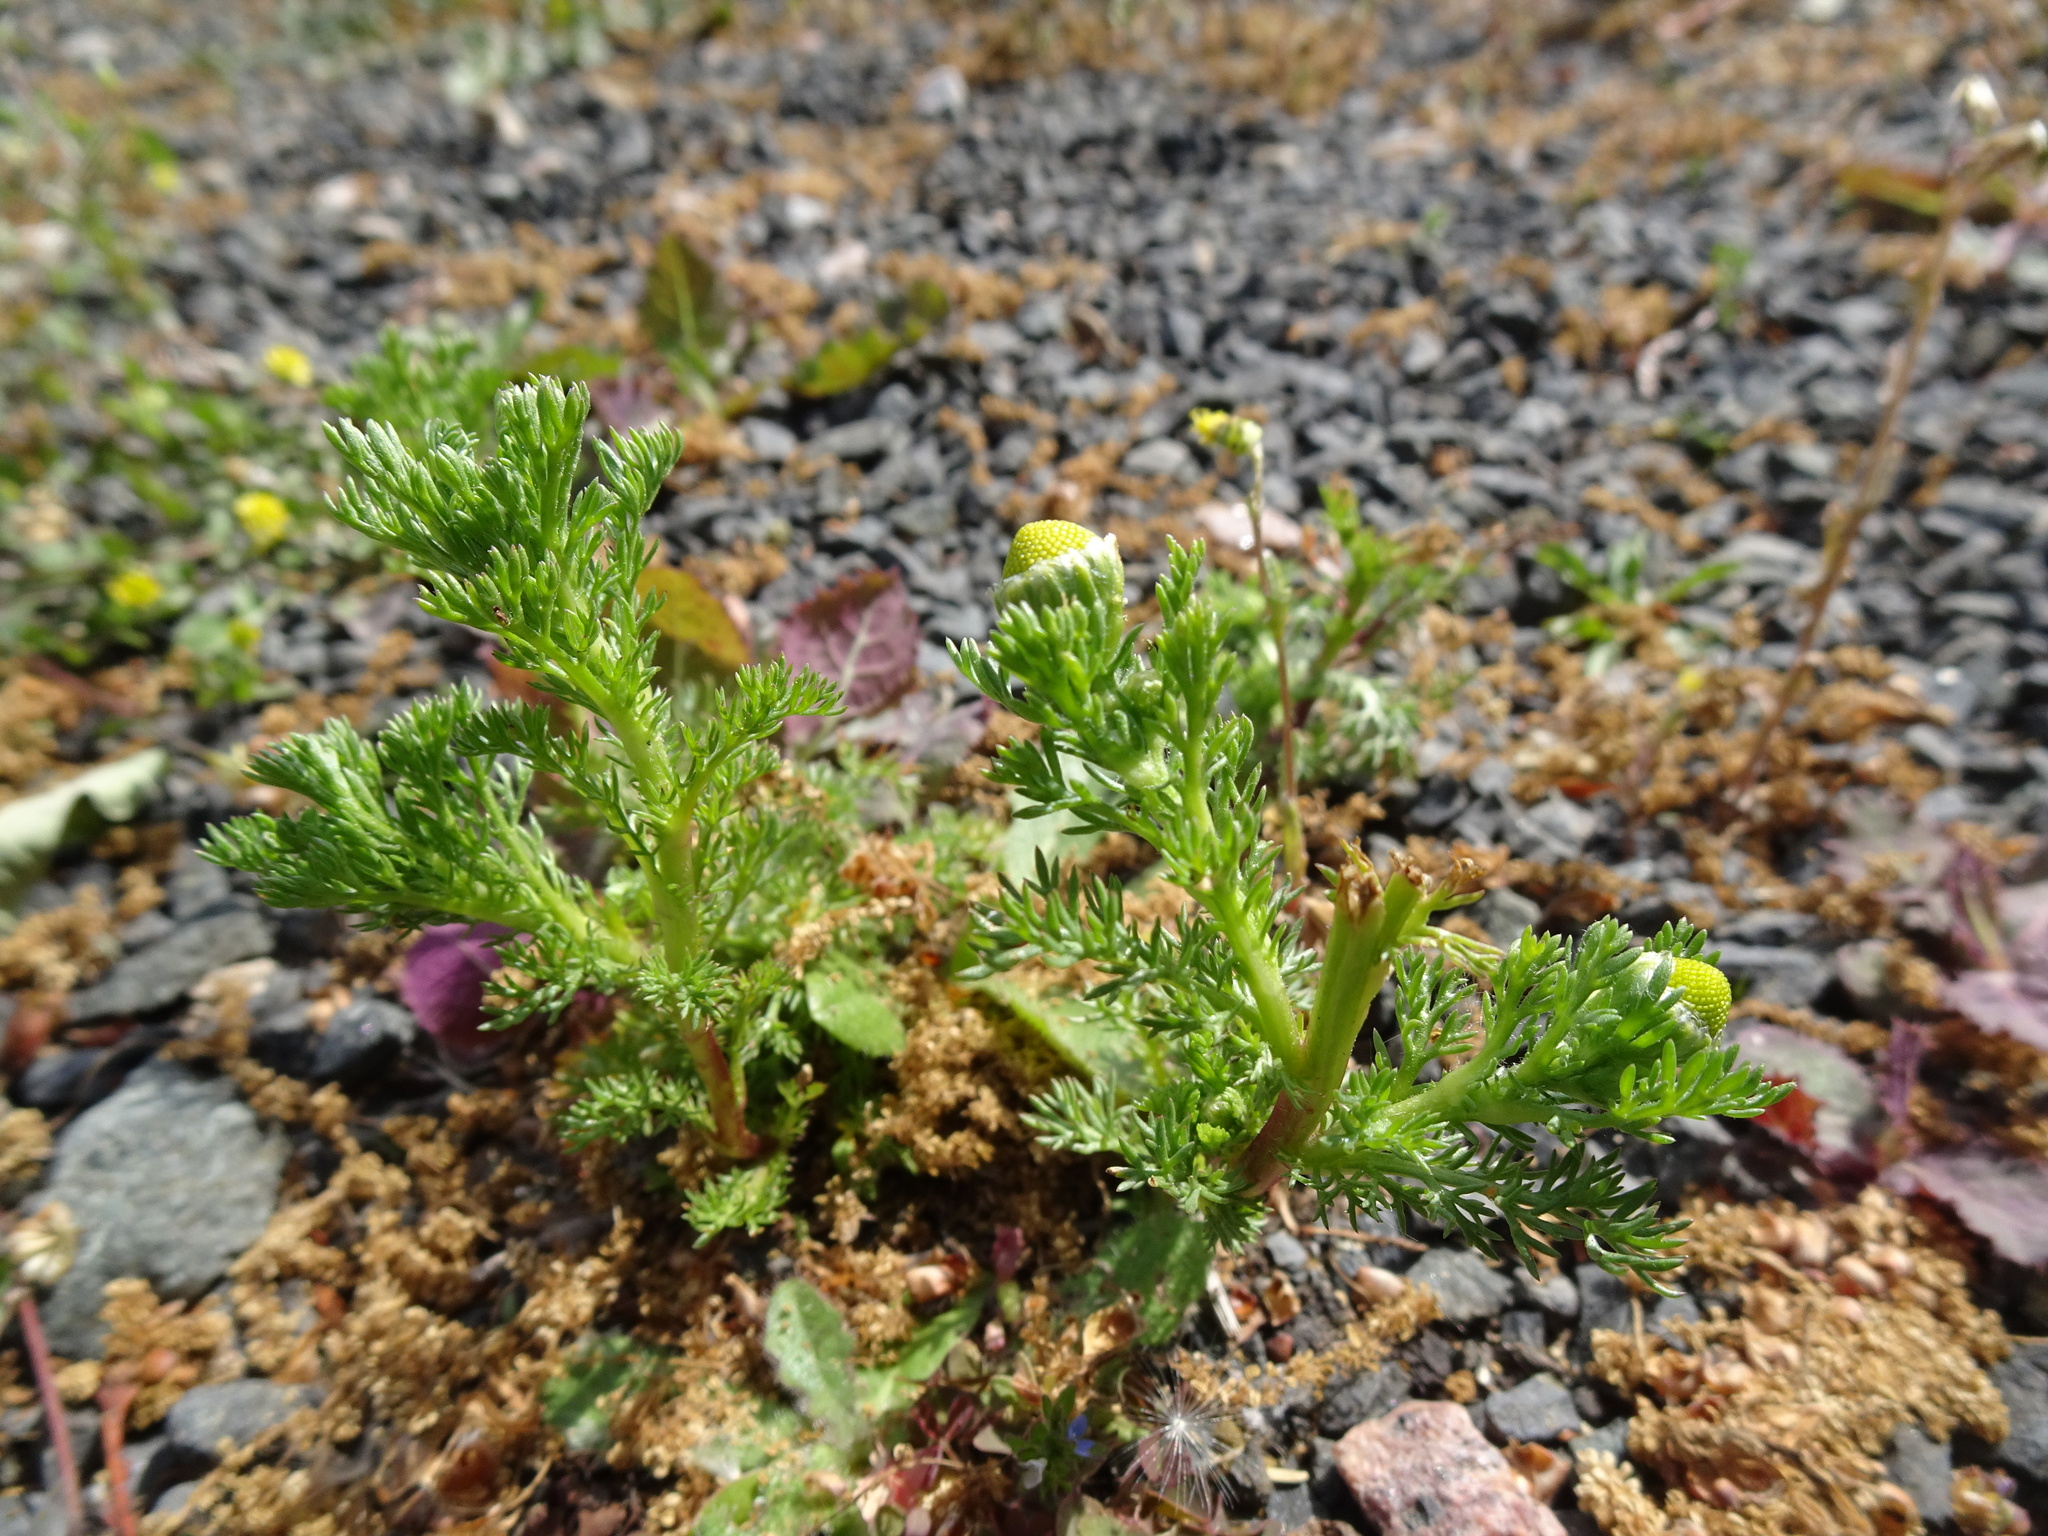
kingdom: Plantae
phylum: Tracheophyta
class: Magnoliopsida
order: Asterales
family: Asteraceae
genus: Matricaria
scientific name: Matricaria discoidea
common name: Disc mayweed
